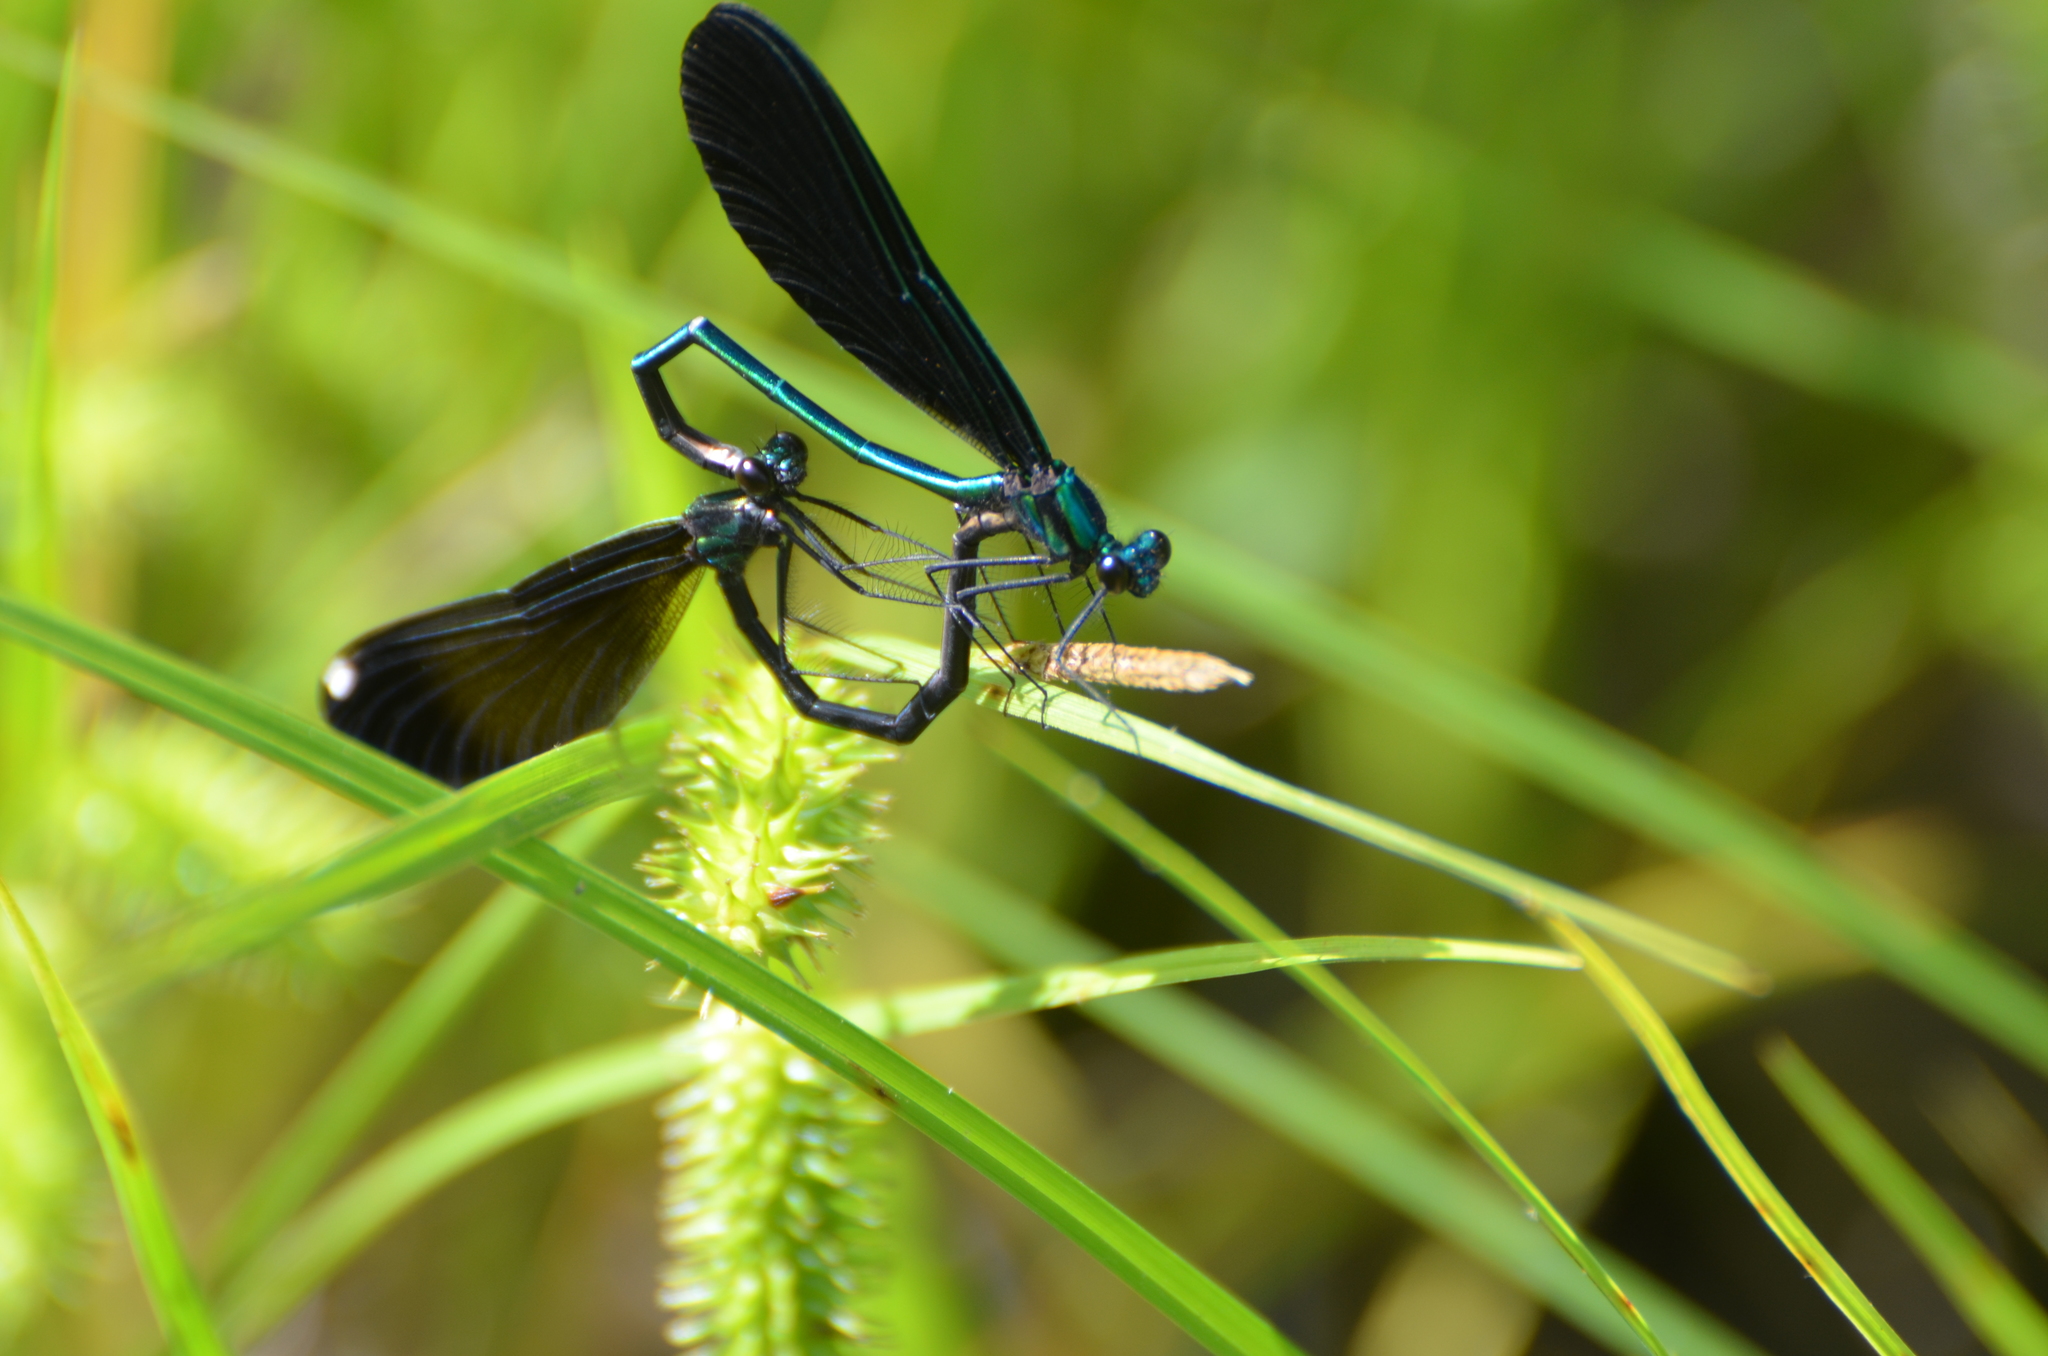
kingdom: Animalia
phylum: Arthropoda
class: Insecta
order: Odonata
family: Calopterygidae
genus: Calopteryx
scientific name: Calopteryx maculata
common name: Ebony jewelwing
